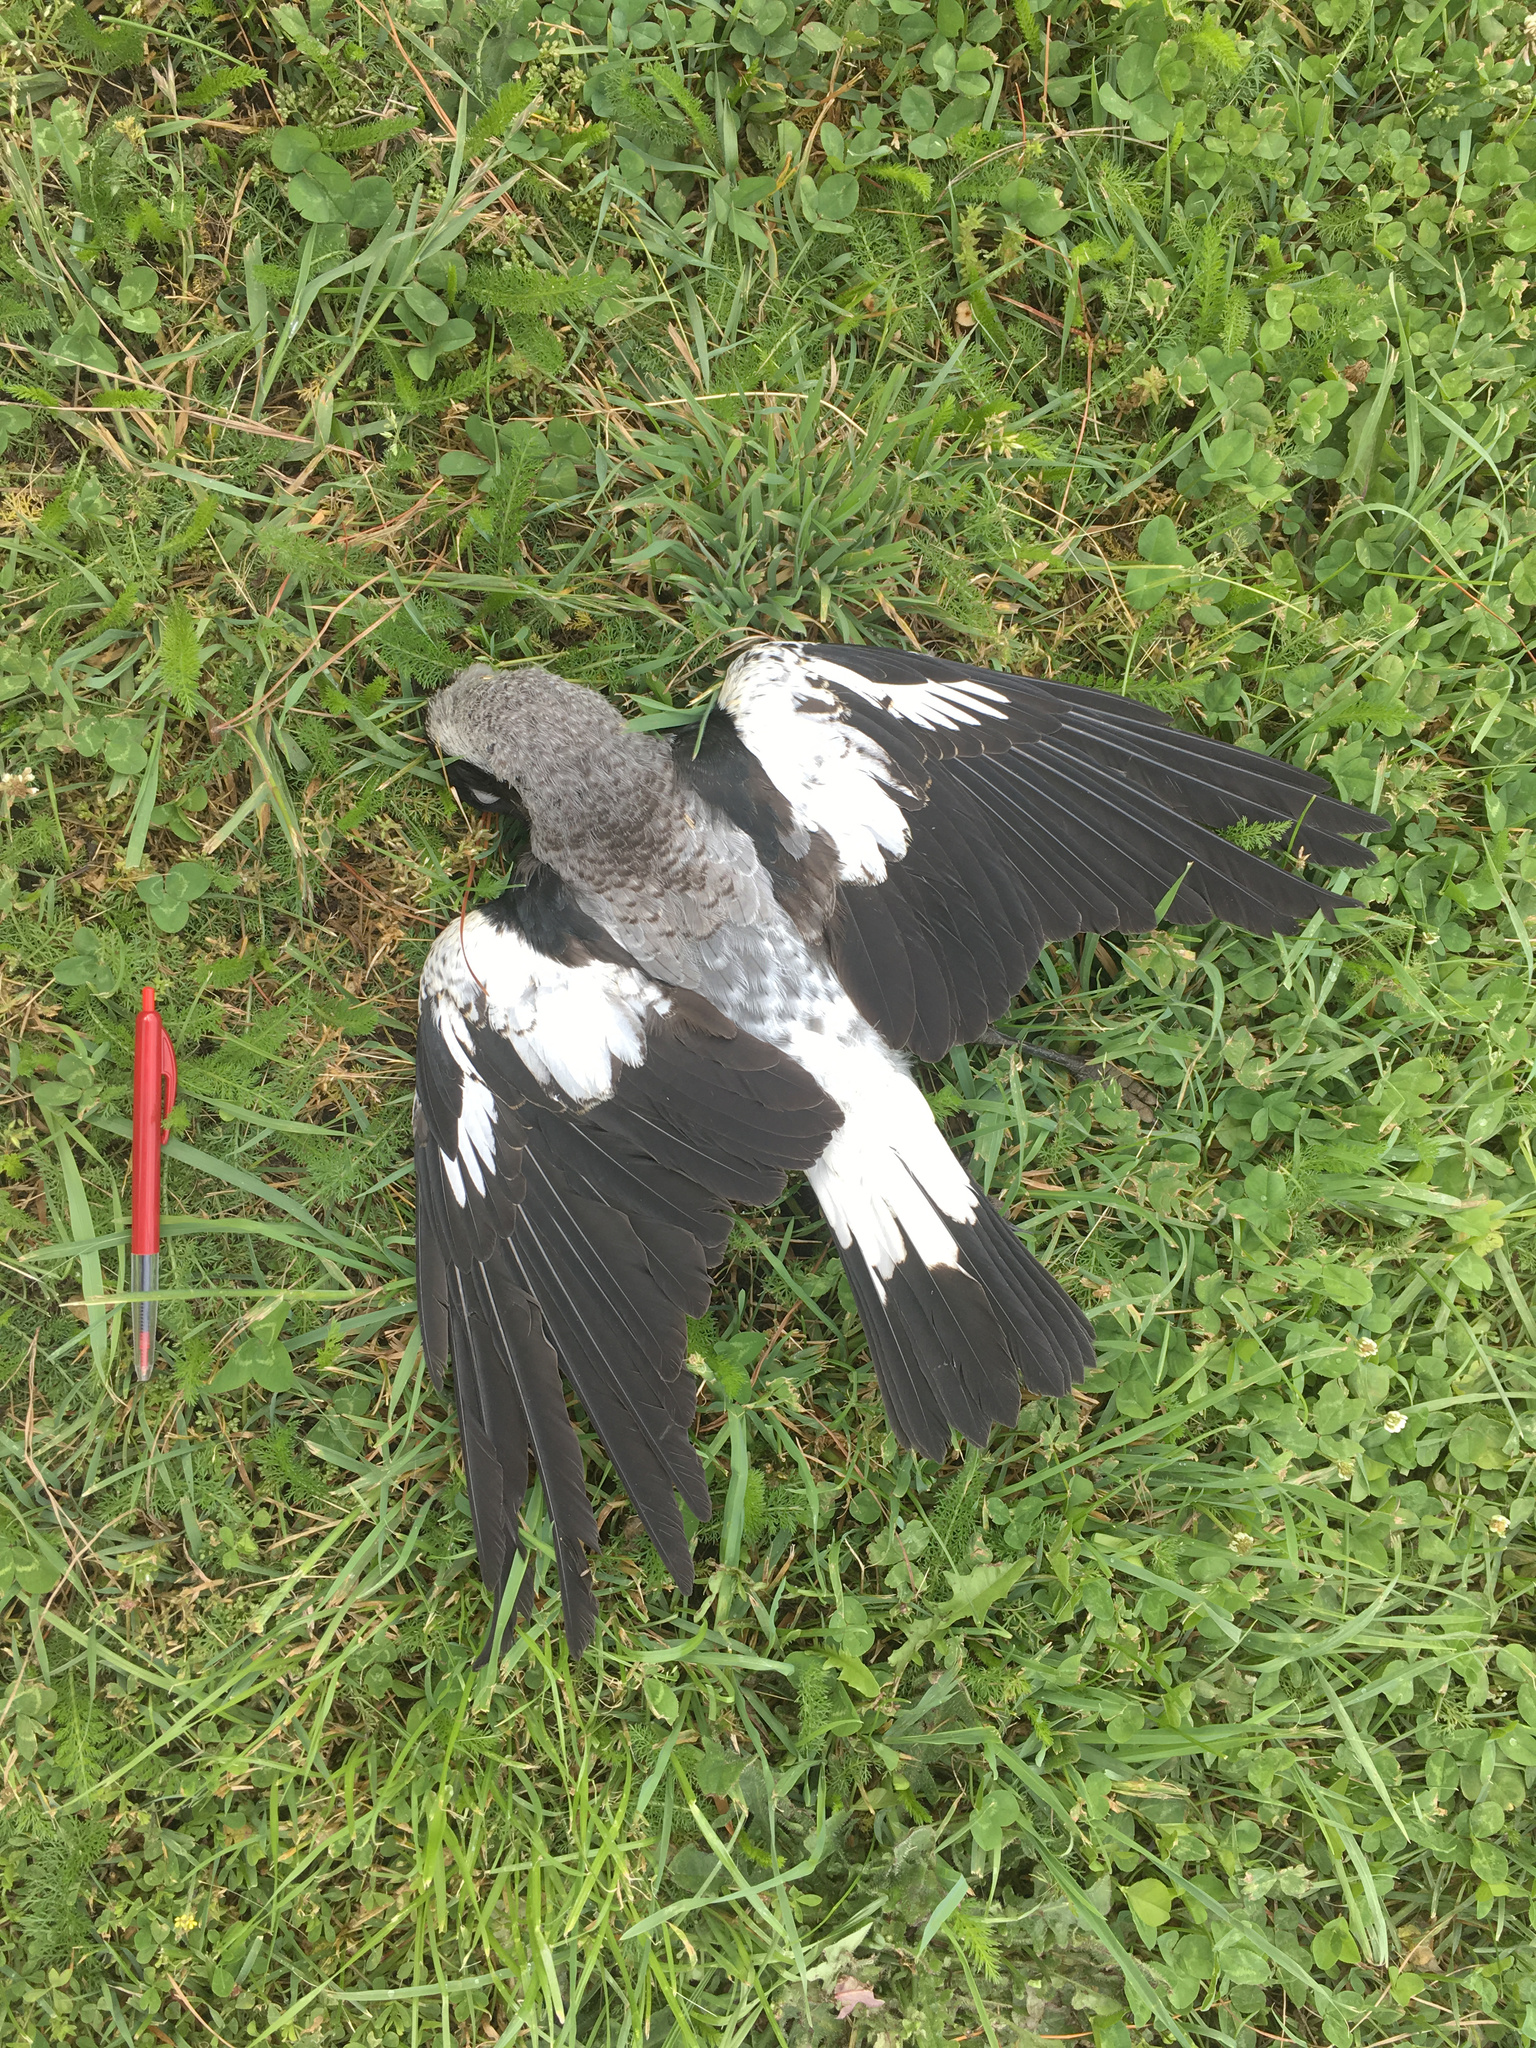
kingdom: Animalia
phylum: Chordata
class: Aves
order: Passeriformes
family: Cracticidae
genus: Gymnorhina
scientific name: Gymnorhina tibicen
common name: Australian magpie
